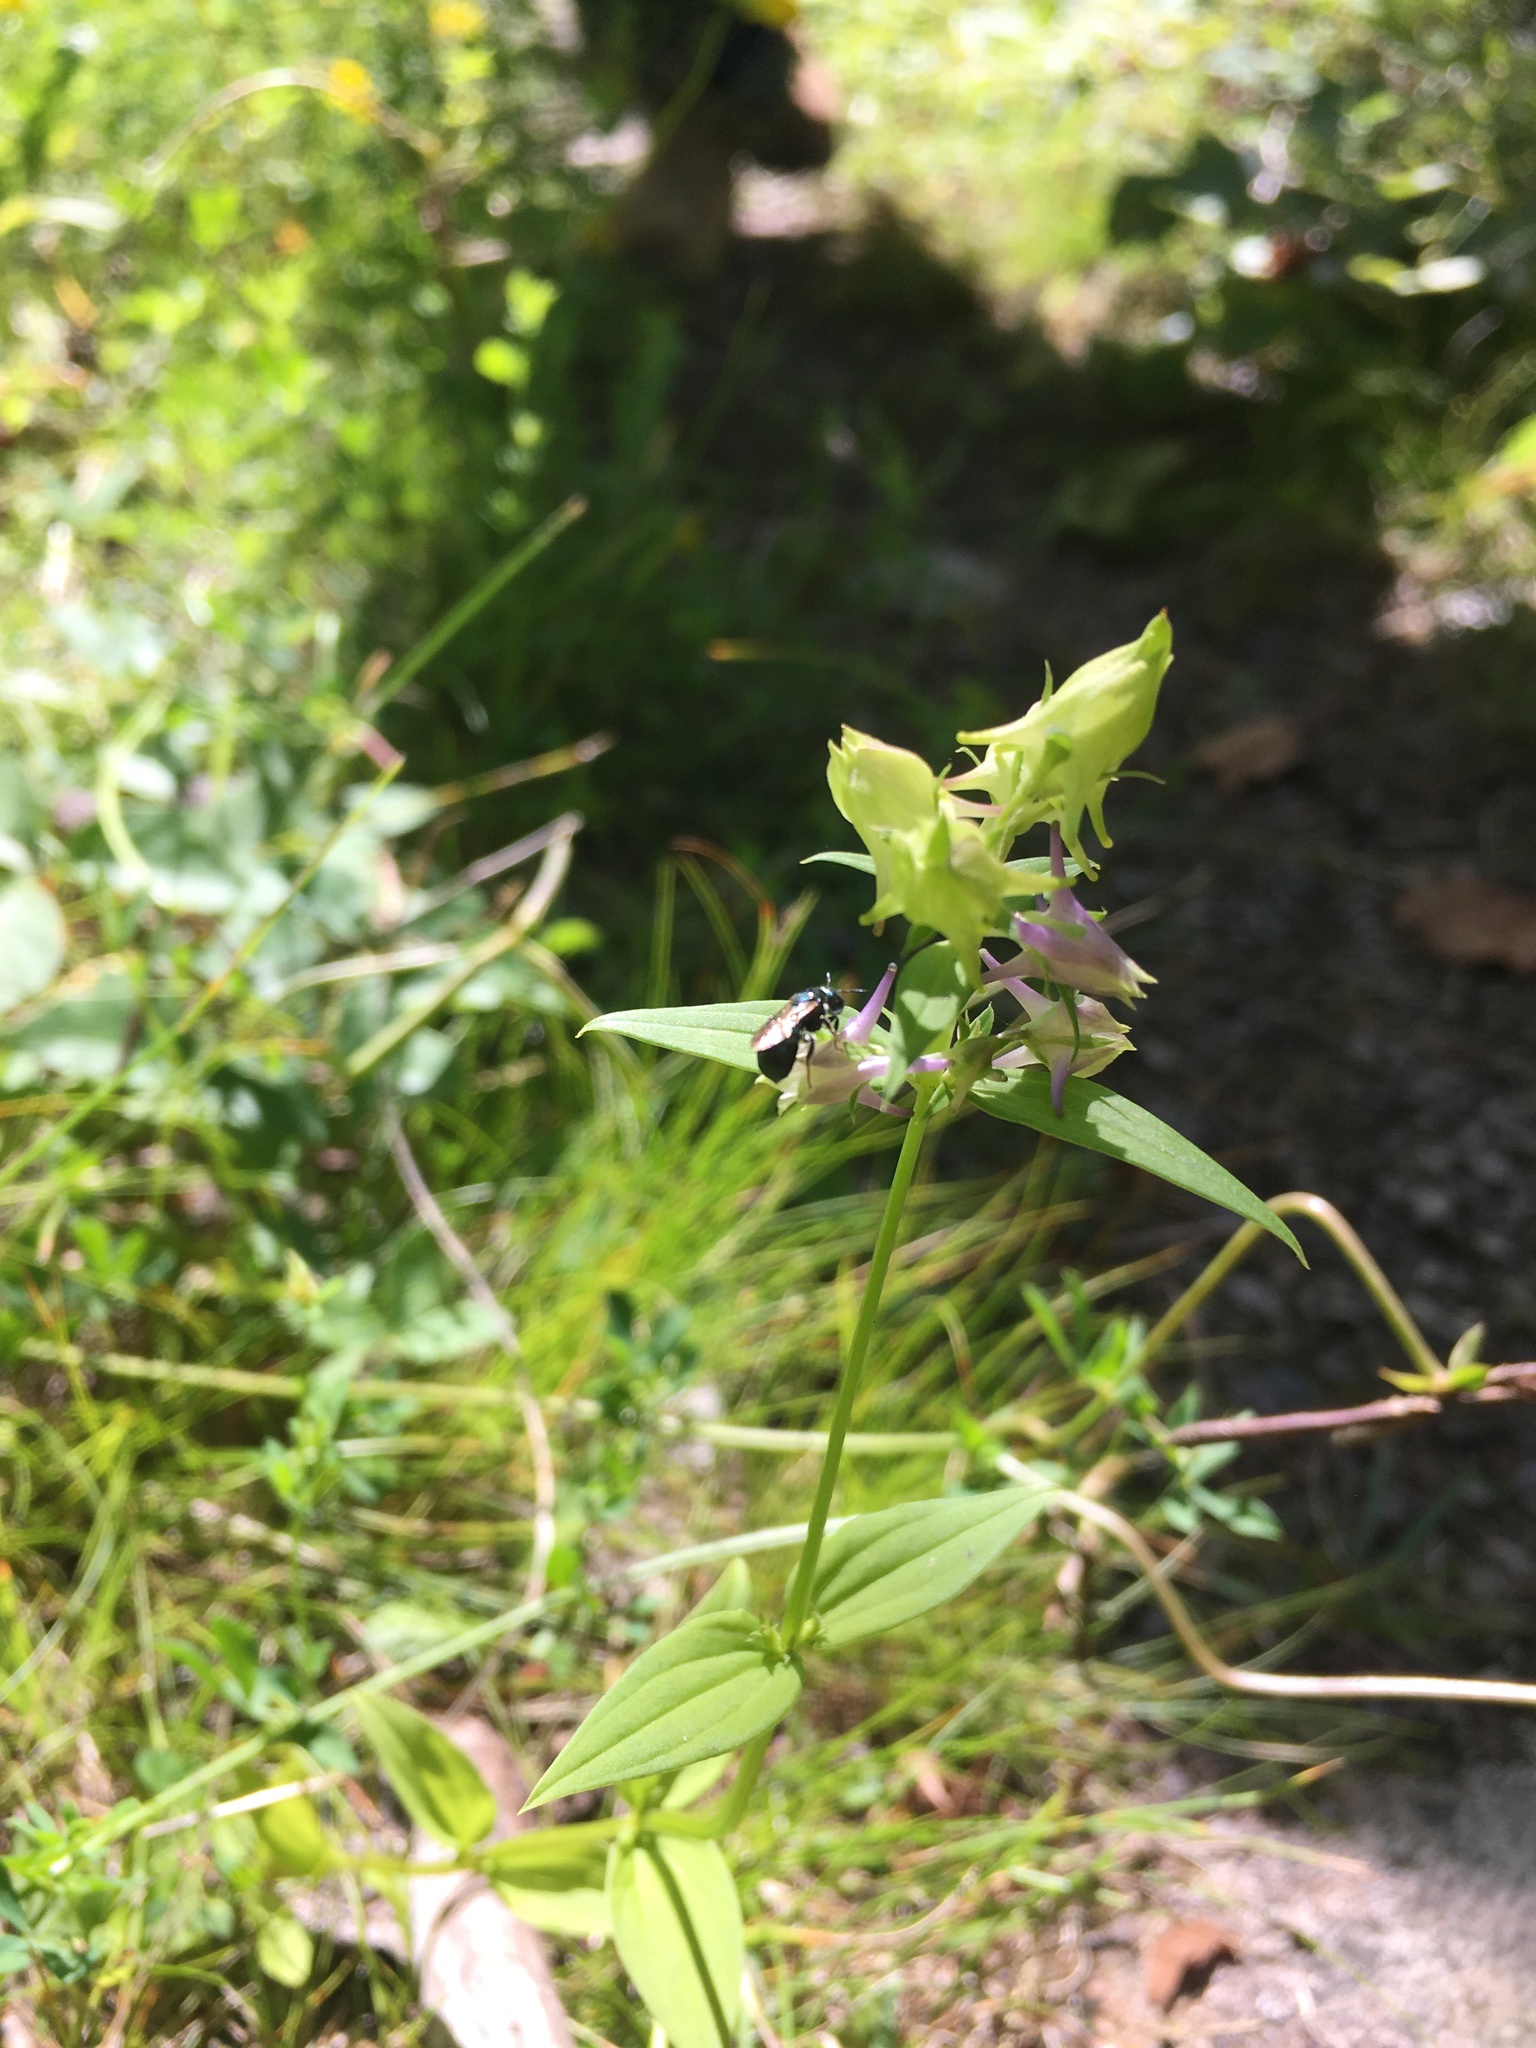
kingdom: Plantae
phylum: Tracheophyta
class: Magnoliopsida
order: Gentianales
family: Gentianaceae
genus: Halenia
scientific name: Halenia deflexa
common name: American spurred gentian
